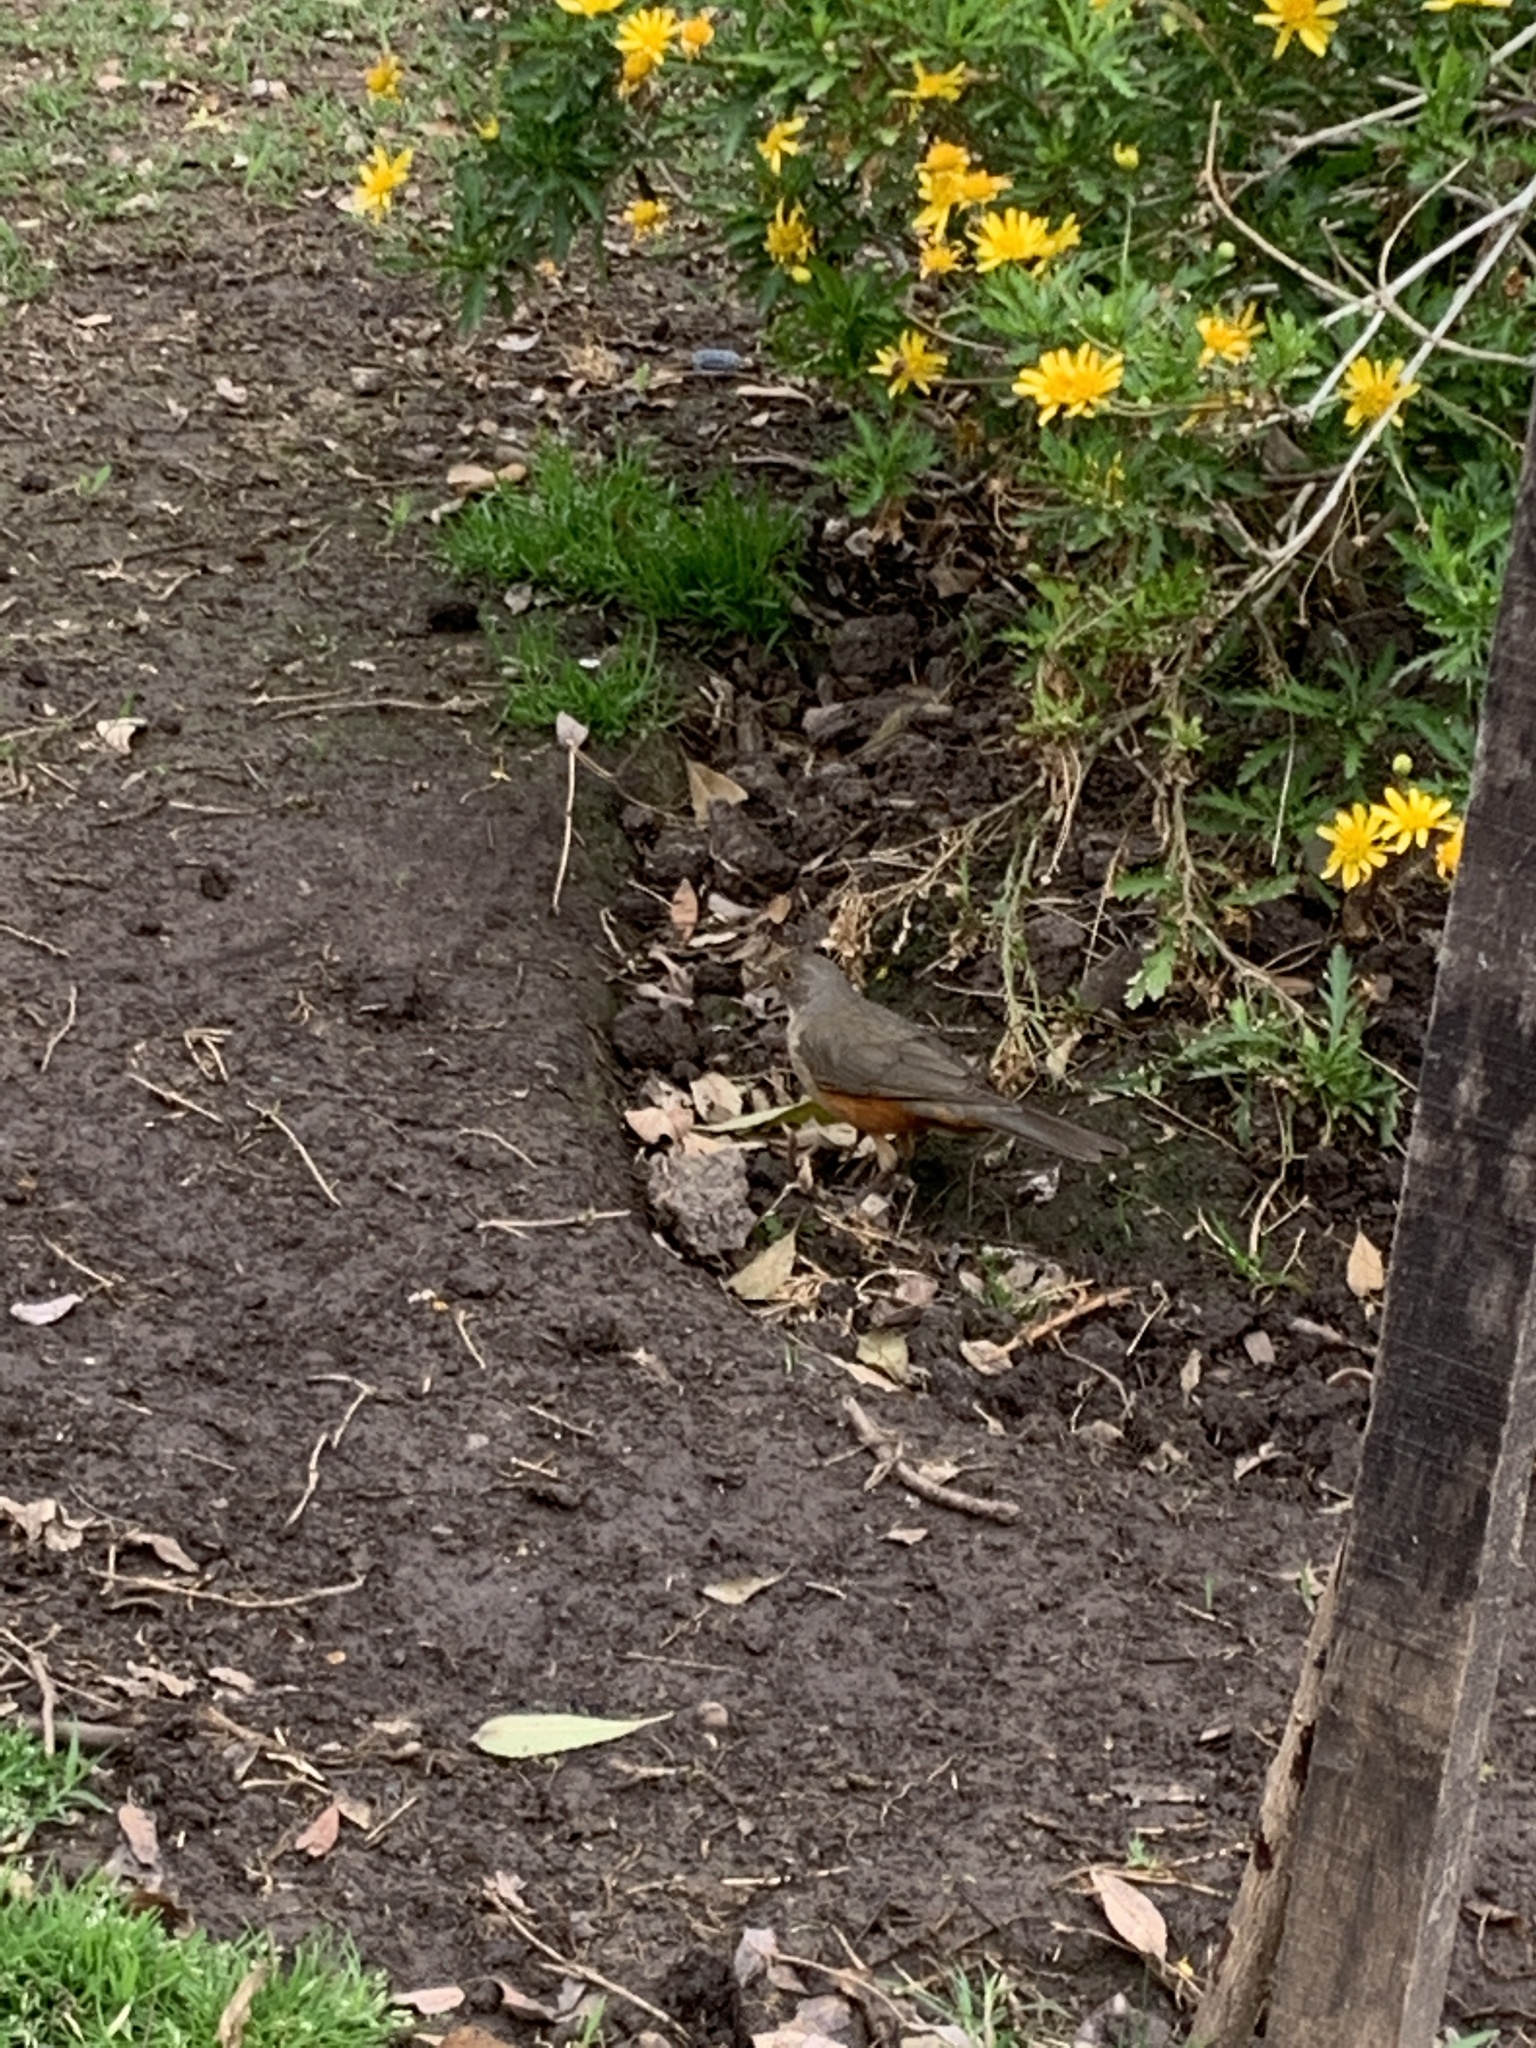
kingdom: Animalia
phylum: Chordata
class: Aves
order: Passeriformes
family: Turdidae
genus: Turdus
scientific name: Turdus rufiventris
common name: Rufous-bellied thrush
